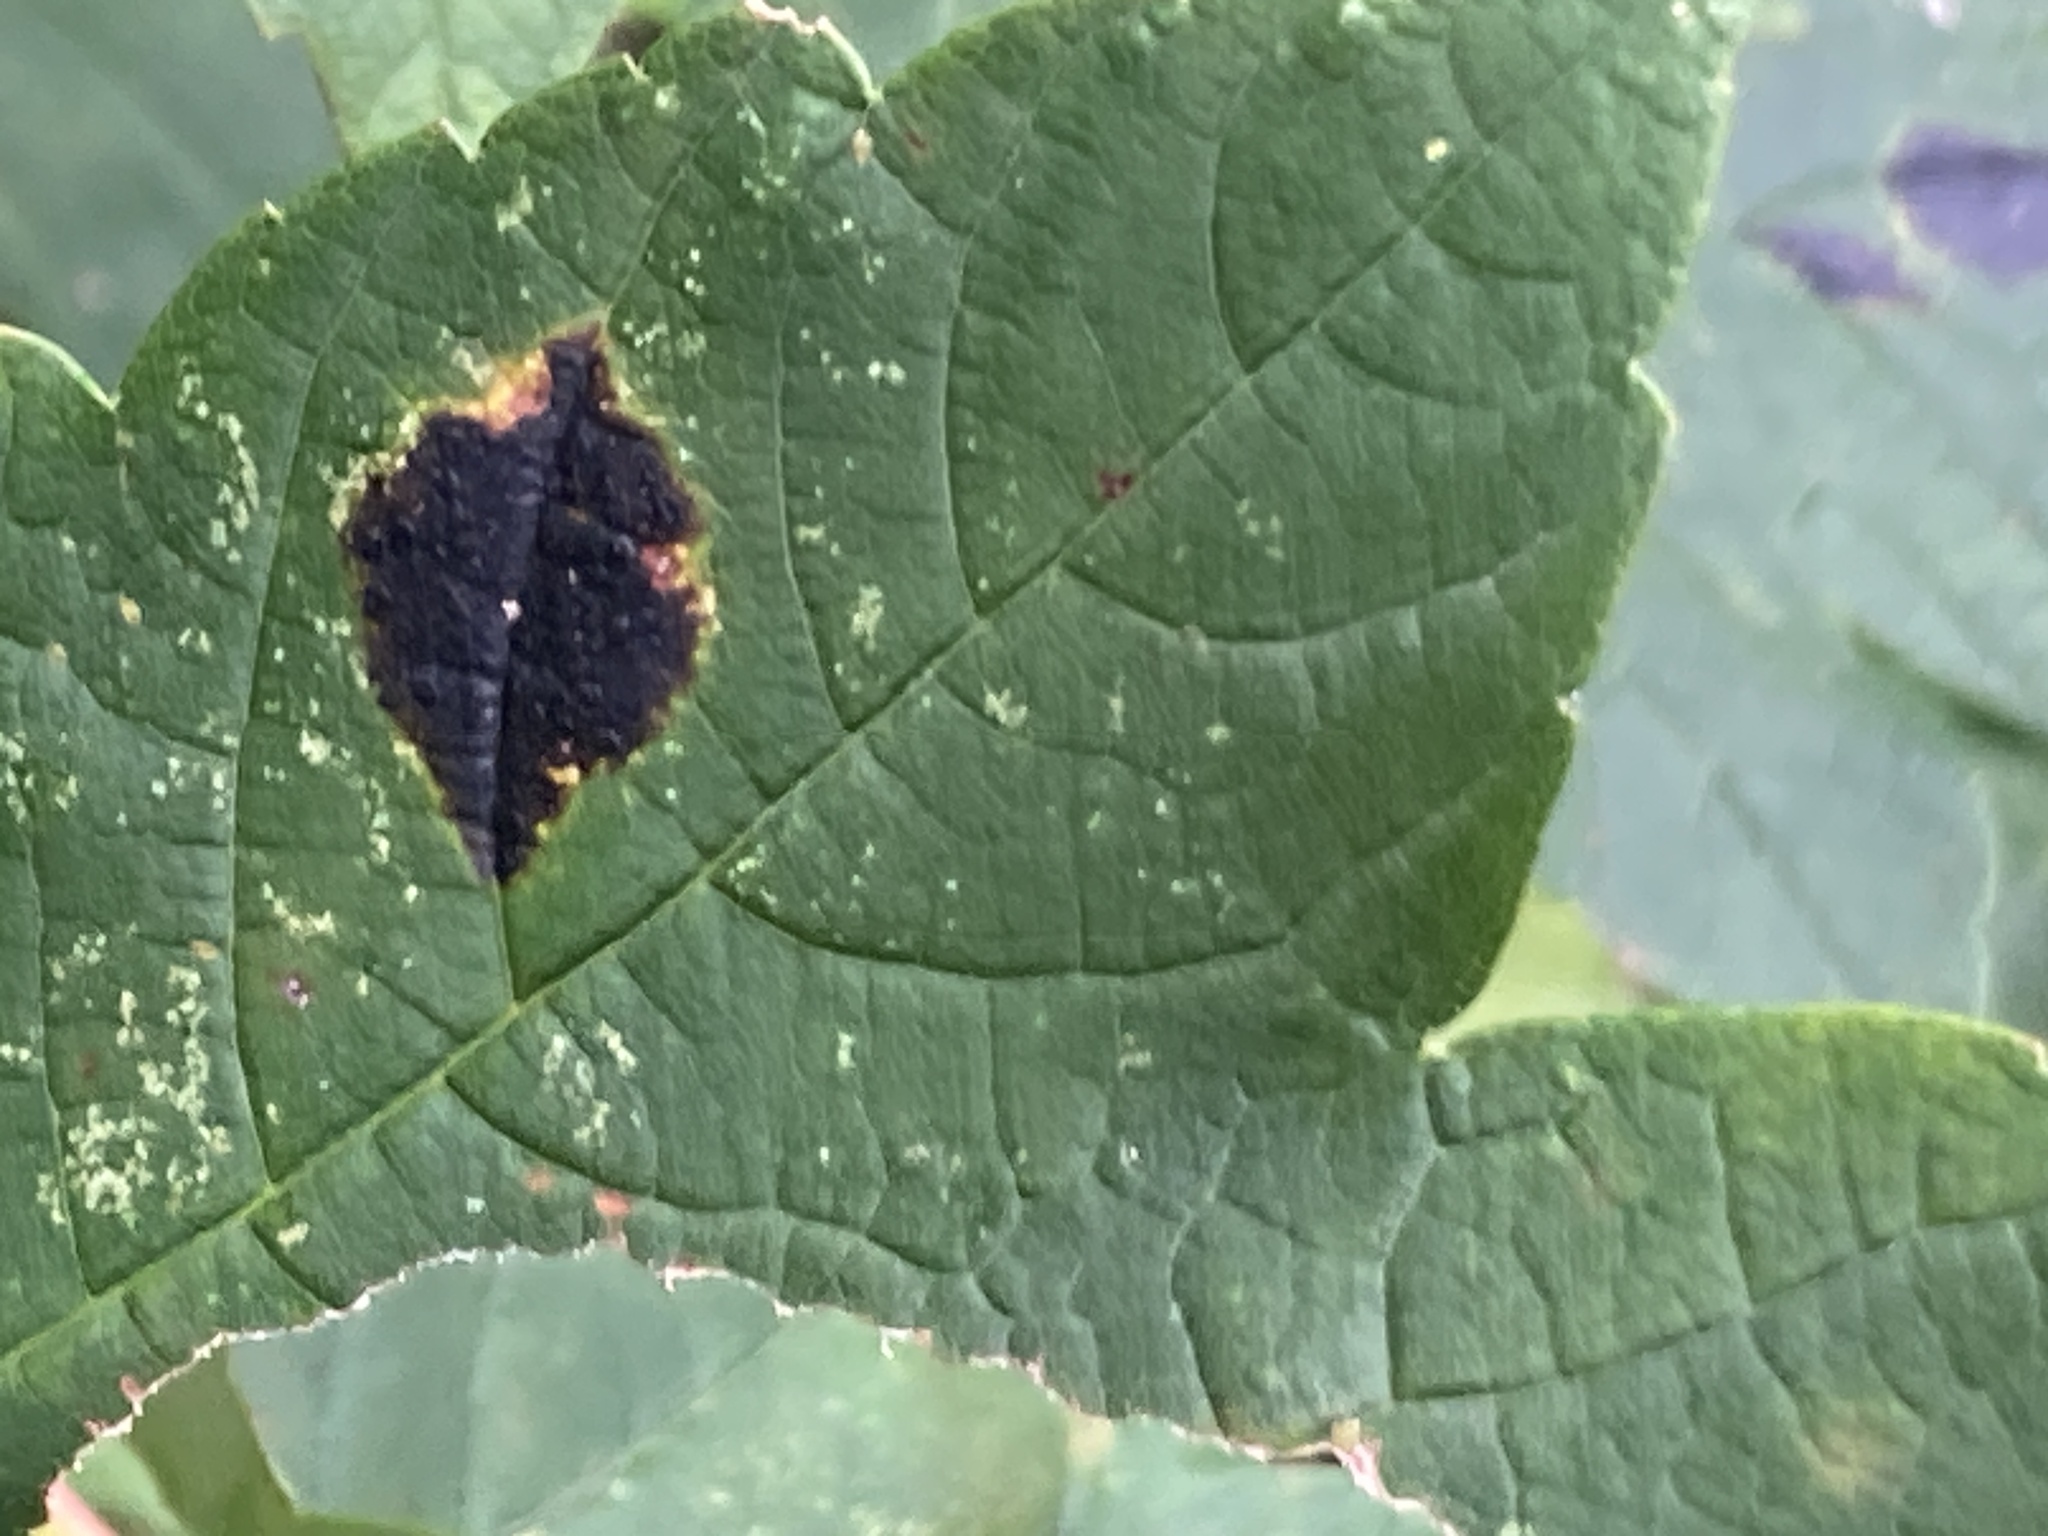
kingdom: Fungi
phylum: Ascomycota
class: Leotiomycetes
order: Rhytismatales
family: Rhytismataceae
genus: Rhytisma
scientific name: Rhytisma acerinum
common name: European tar spot
